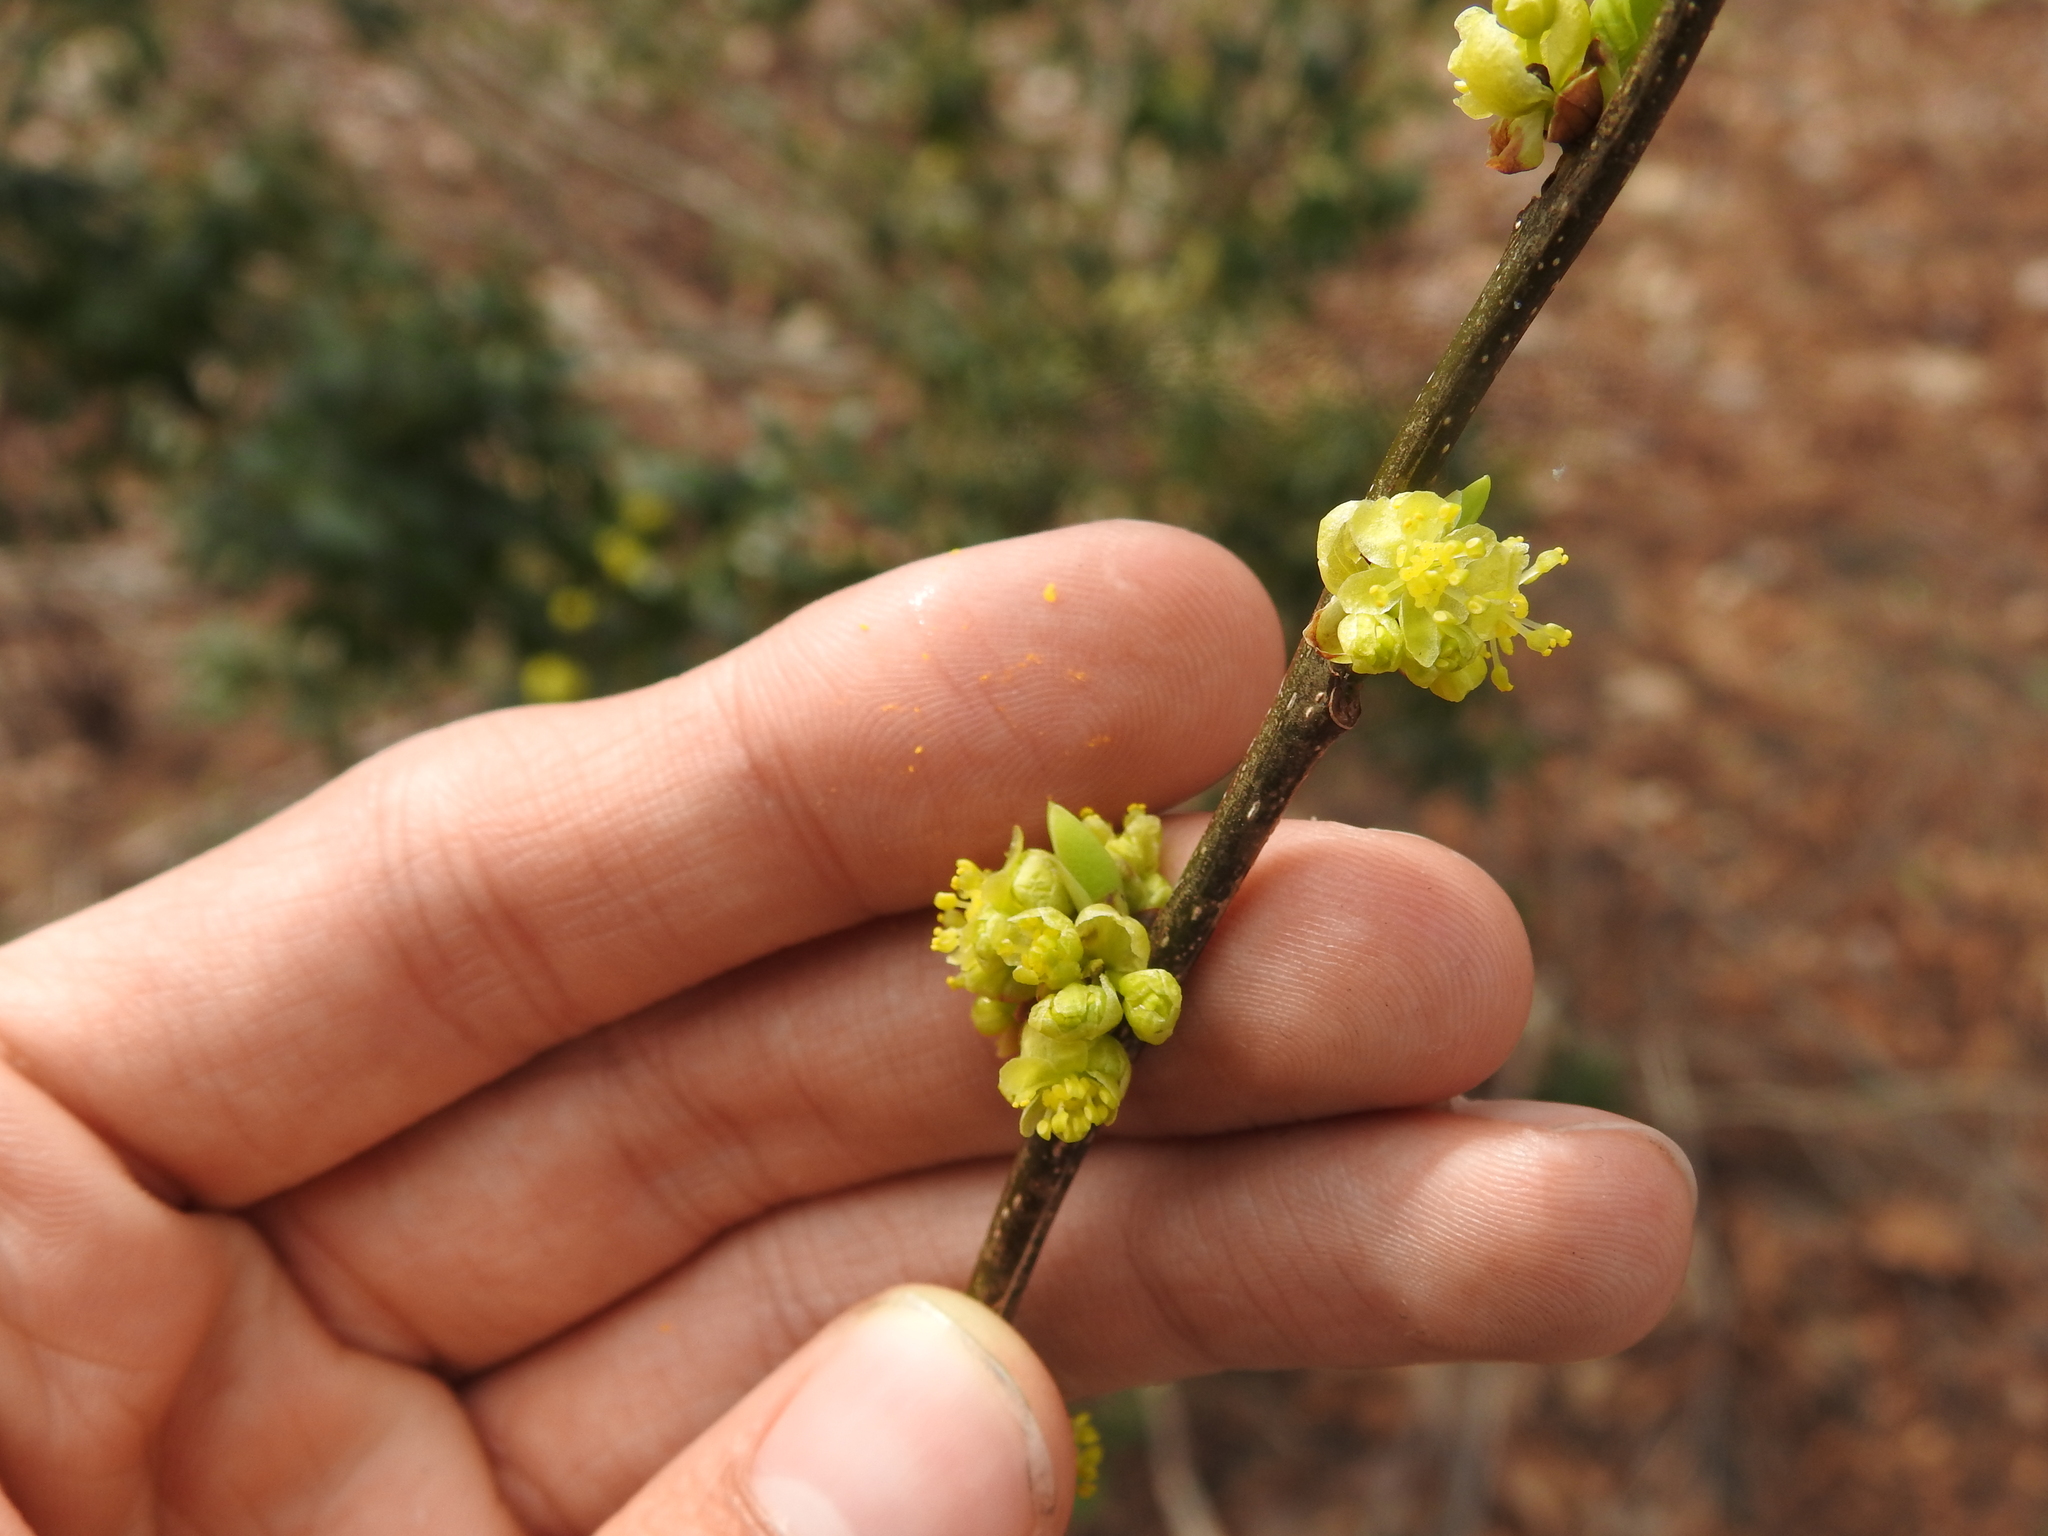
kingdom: Plantae
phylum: Tracheophyta
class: Magnoliopsida
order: Laurales
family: Lauraceae
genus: Lindera
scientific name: Lindera benzoin
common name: Spicebush
